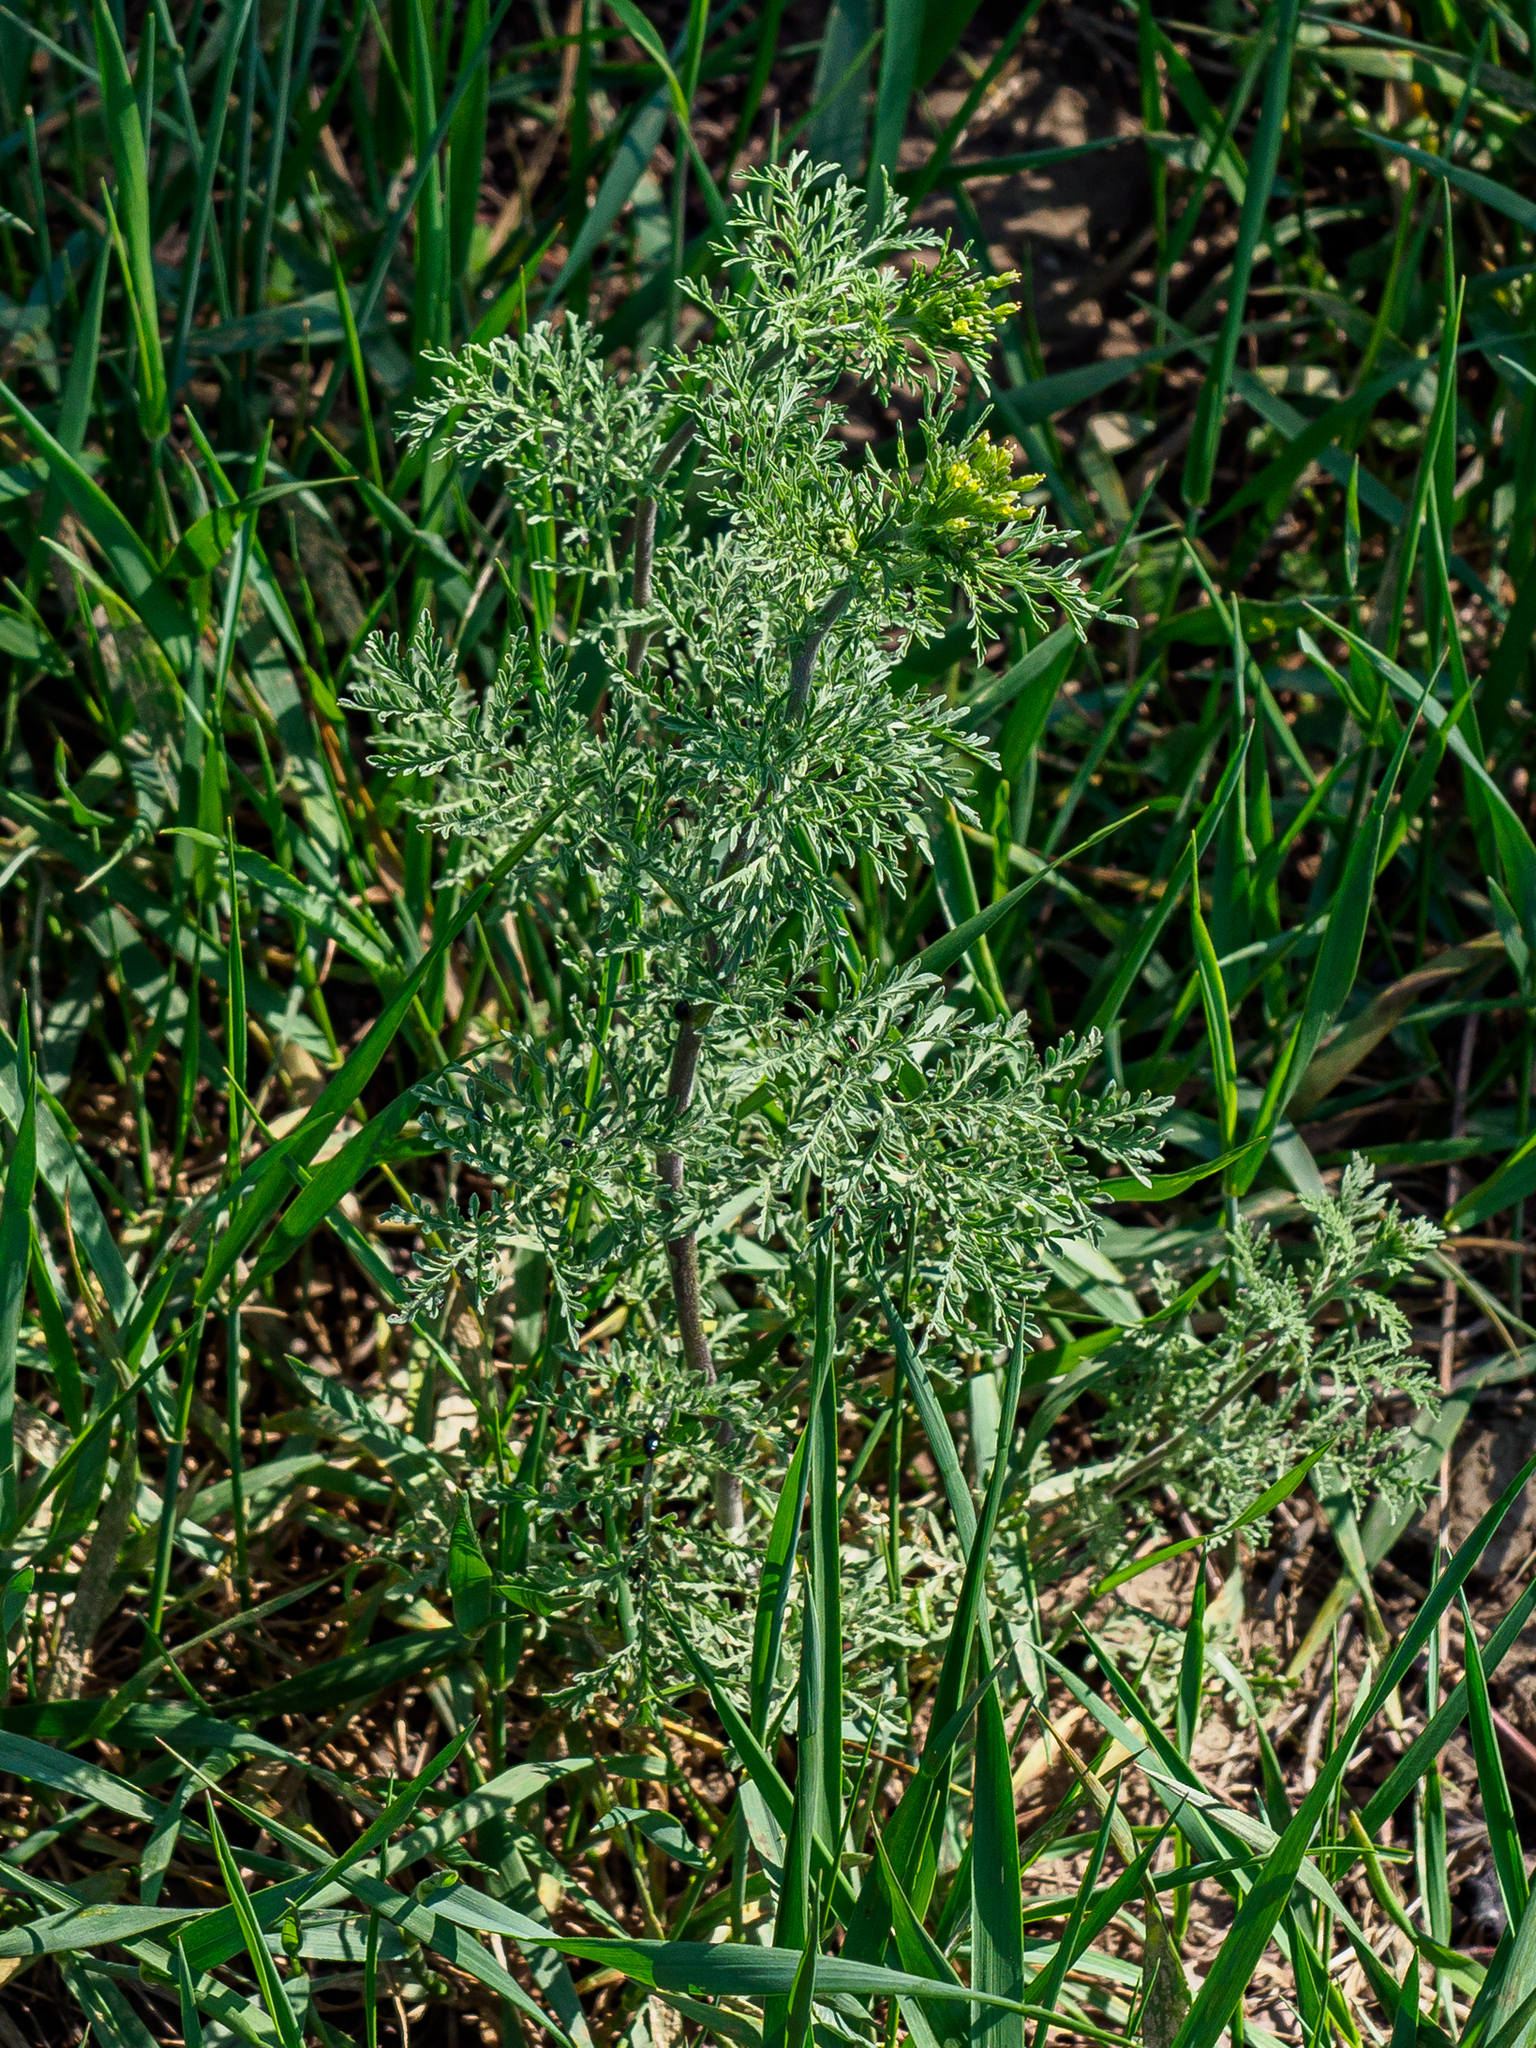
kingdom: Plantae
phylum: Tracheophyta
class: Magnoliopsida
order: Brassicales
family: Brassicaceae
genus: Descurainia
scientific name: Descurainia sophia
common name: Flixweed
